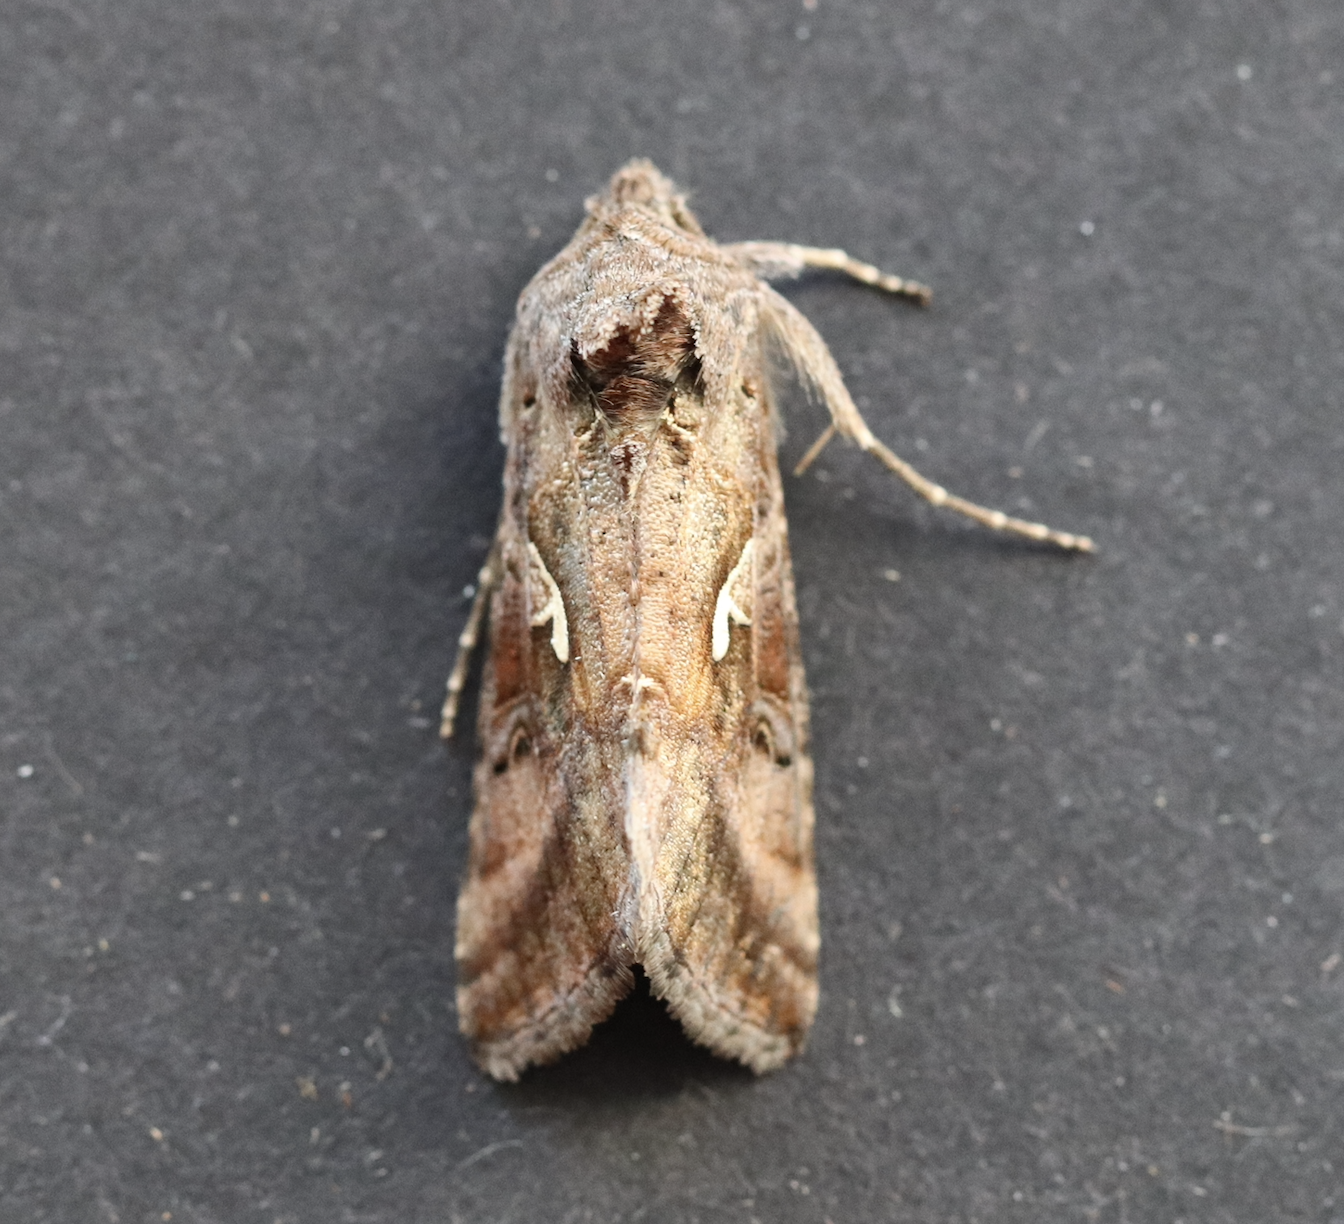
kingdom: Animalia
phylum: Arthropoda
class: Insecta
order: Lepidoptera
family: Noctuidae
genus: Autographa
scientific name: Autographa gamma
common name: Silver y
